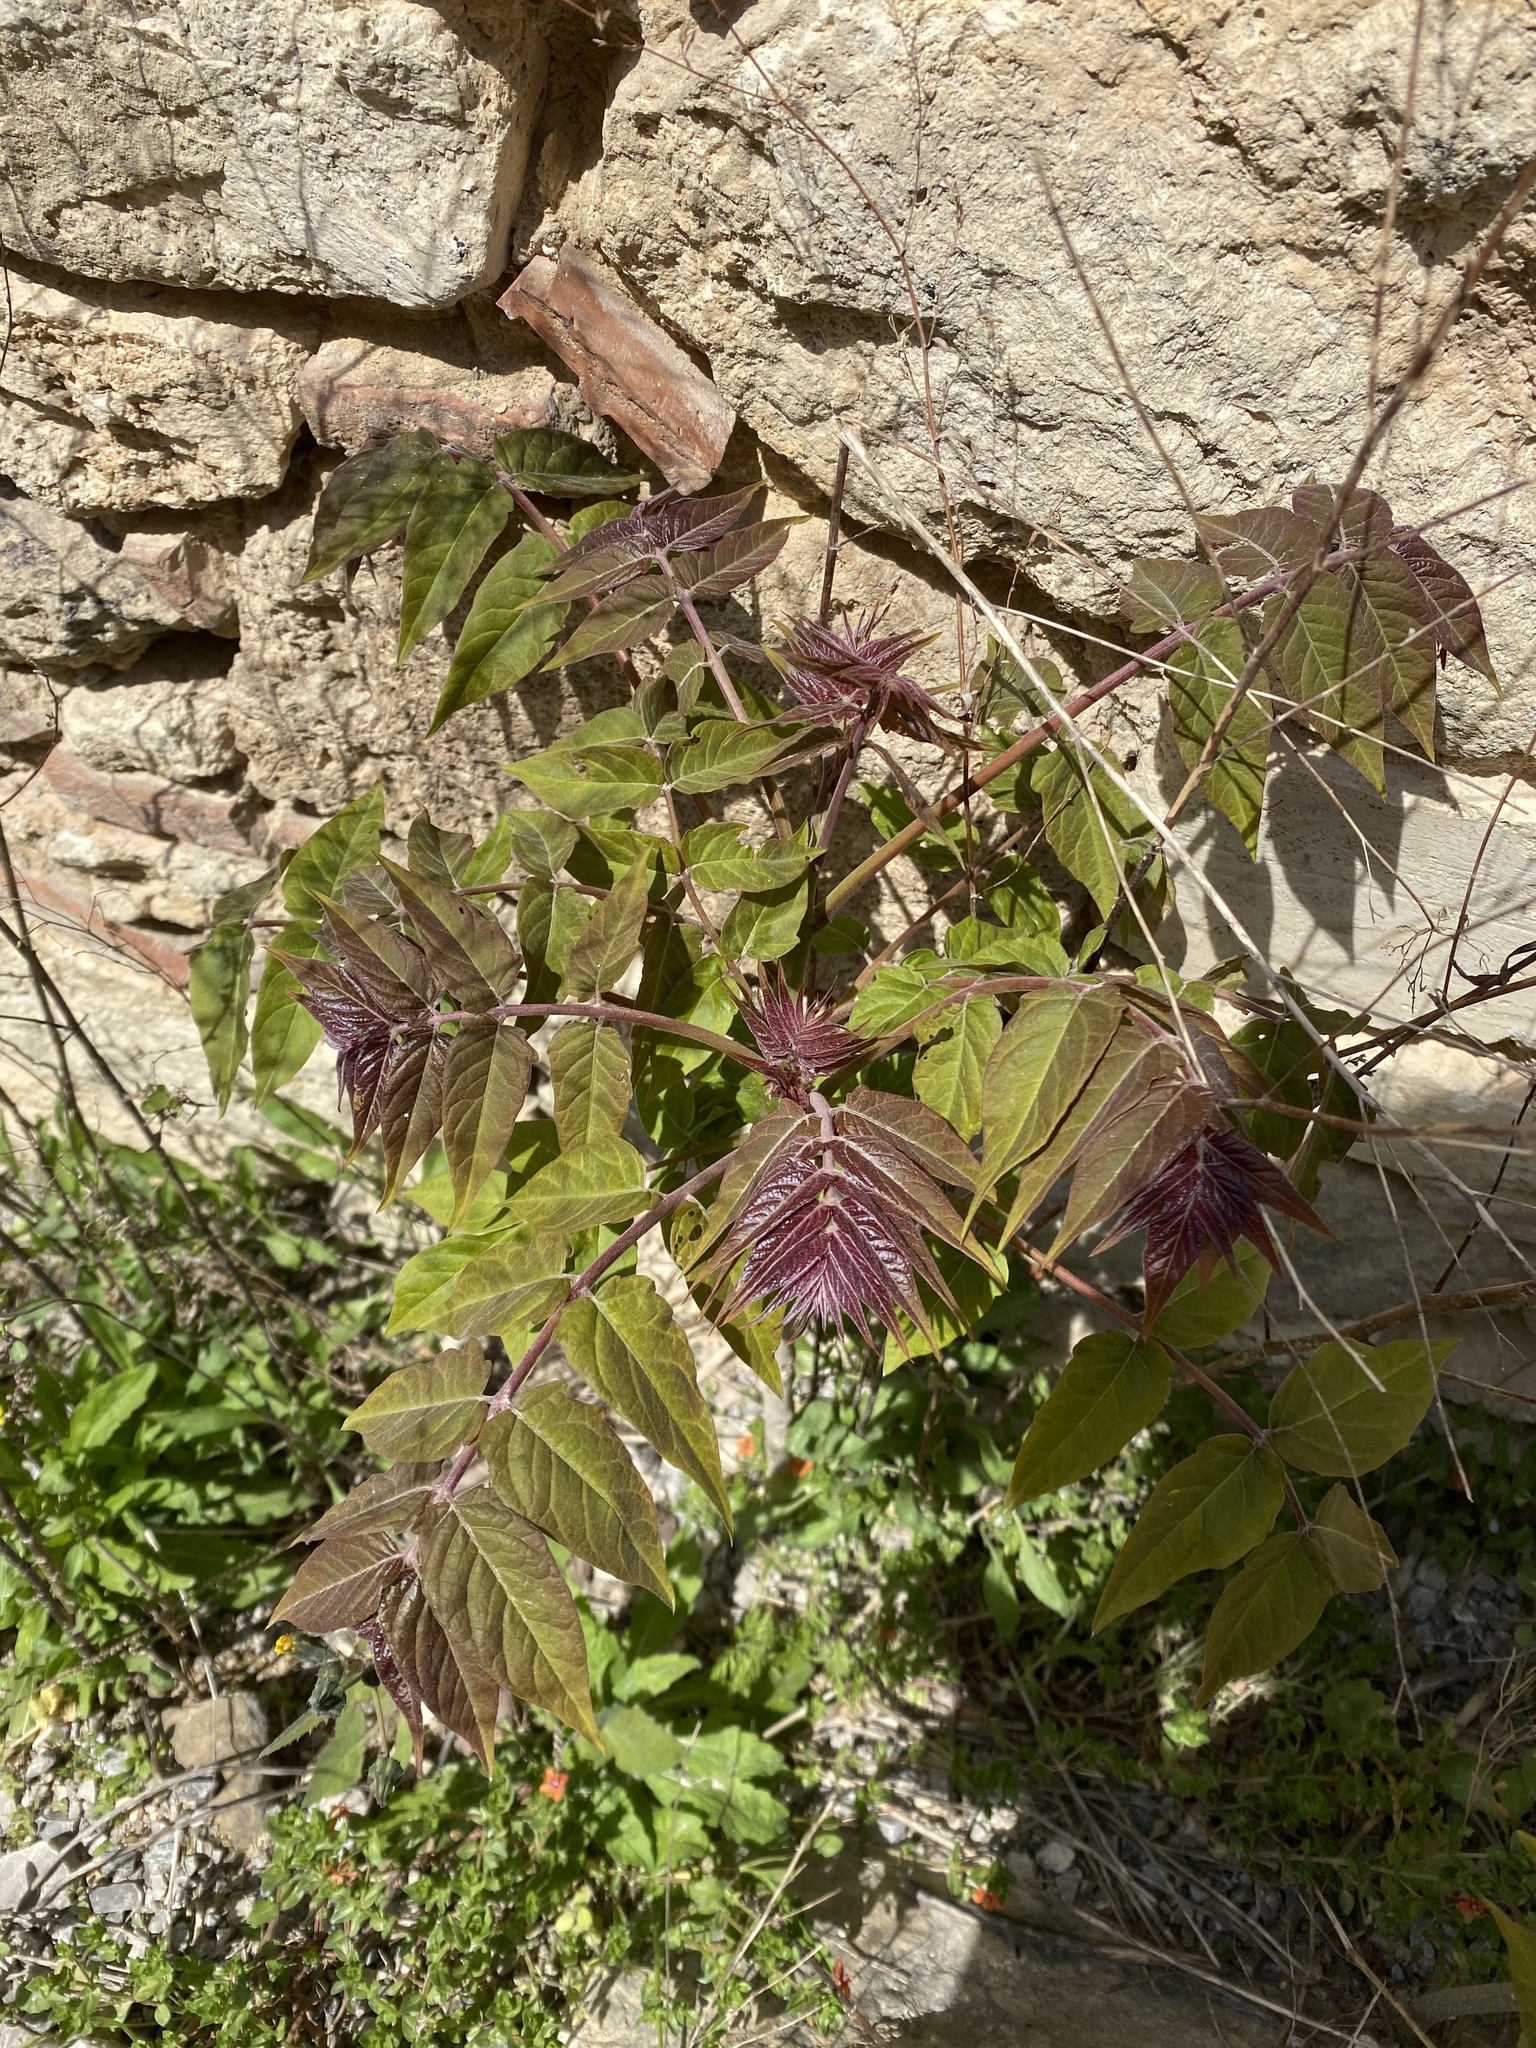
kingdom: Plantae
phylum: Tracheophyta
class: Magnoliopsida
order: Sapindales
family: Simaroubaceae
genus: Ailanthus
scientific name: Ailanthus altissima
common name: Tree-of-heaven
